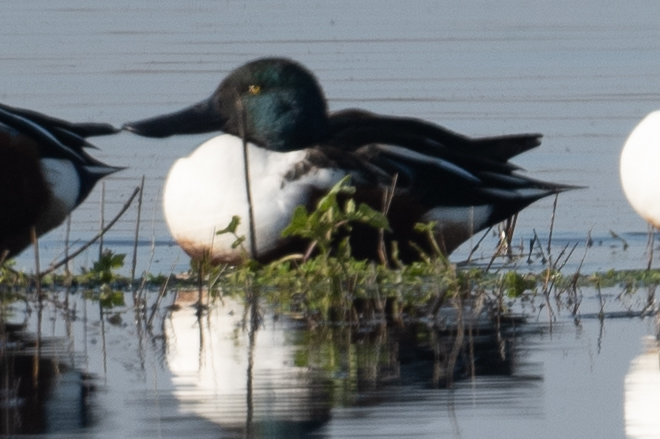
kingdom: Animalia
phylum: Chordata
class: Aves
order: Anseriformes
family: Anatidae
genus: Spatula
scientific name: Spatula clypeata
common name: Northern shoveler
